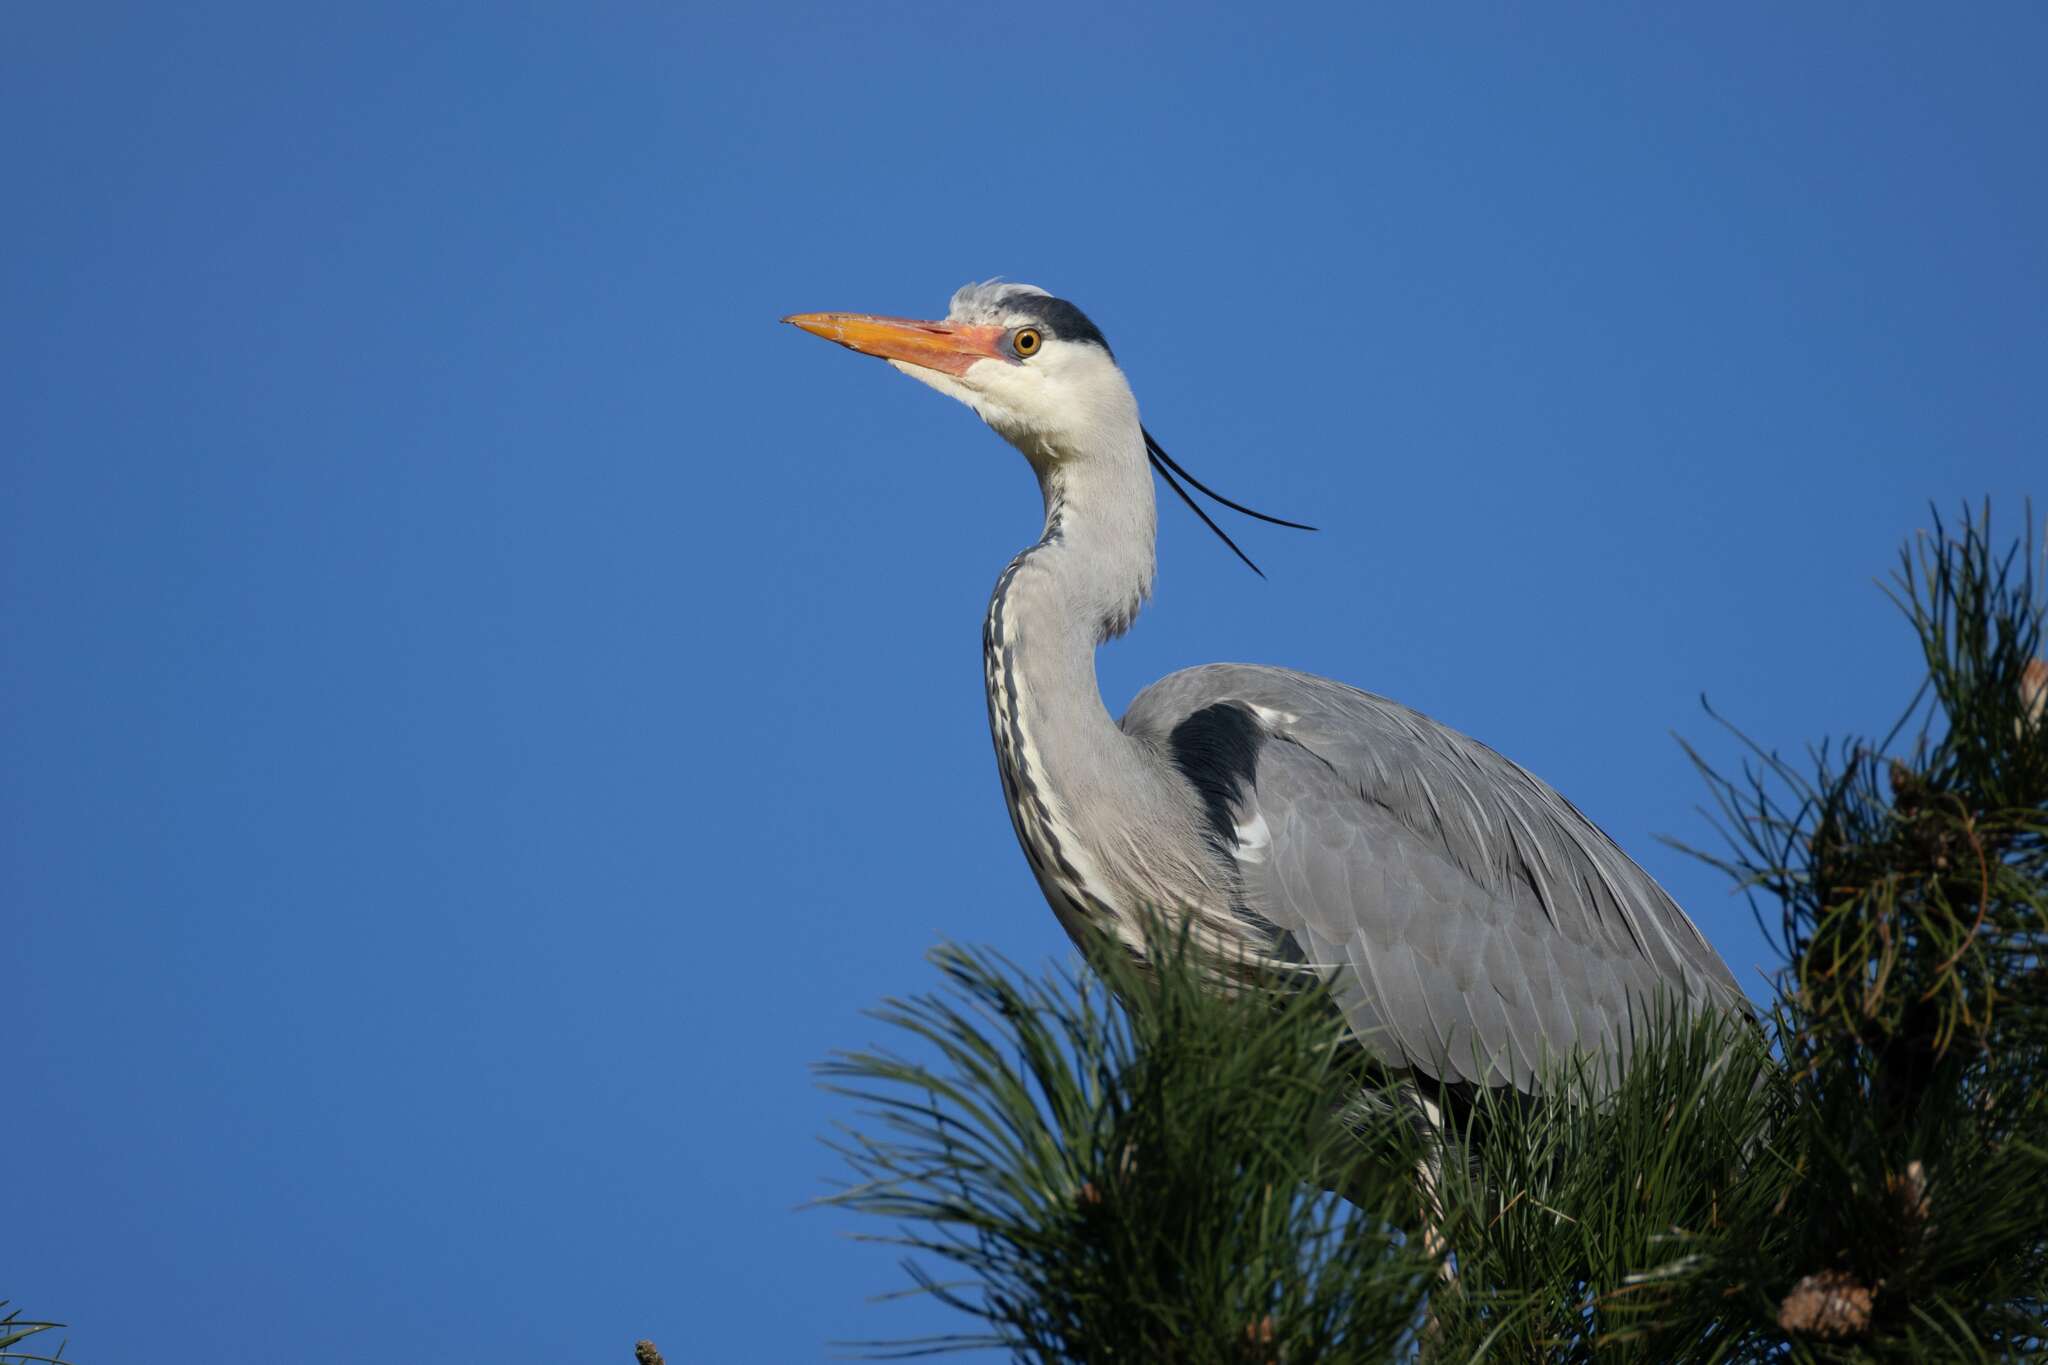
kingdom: Animalia
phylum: Chordata
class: Aves
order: Pelecaniformes
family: Ardeidae
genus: Ardea
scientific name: Ardea cinerea
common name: Grey heron
